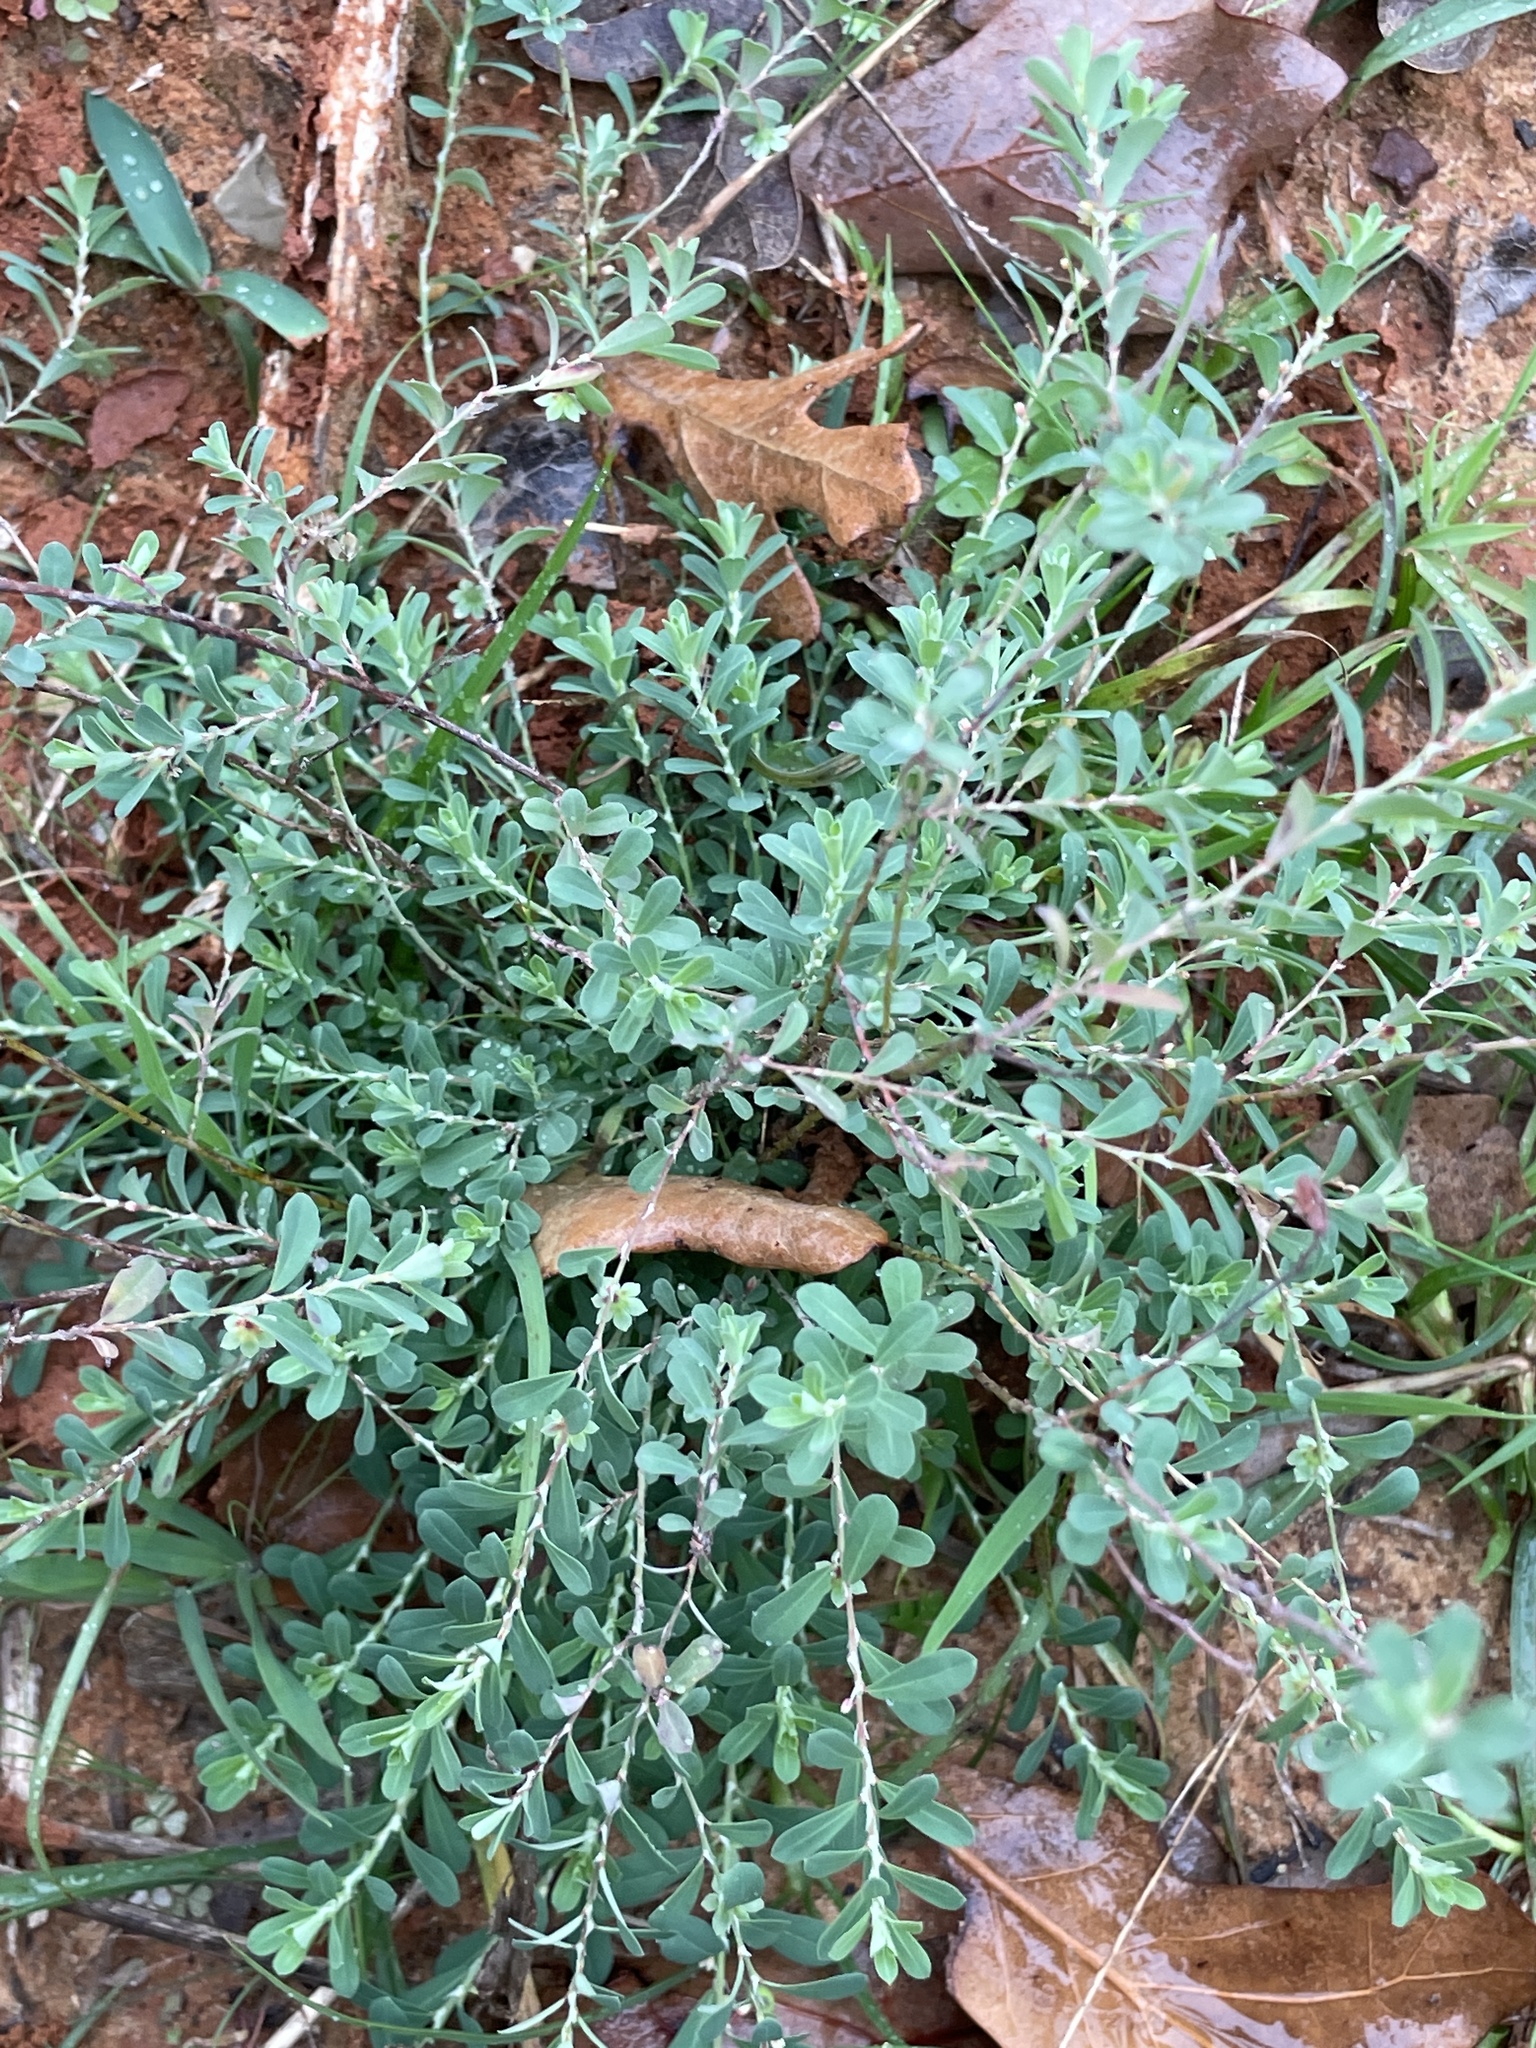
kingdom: Plantae
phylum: Tracheophyta
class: Magnoliopsida
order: Malpighiales
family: Phyllanthaceae
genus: Phyllanthus
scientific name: Phyllanthus polygonoides
